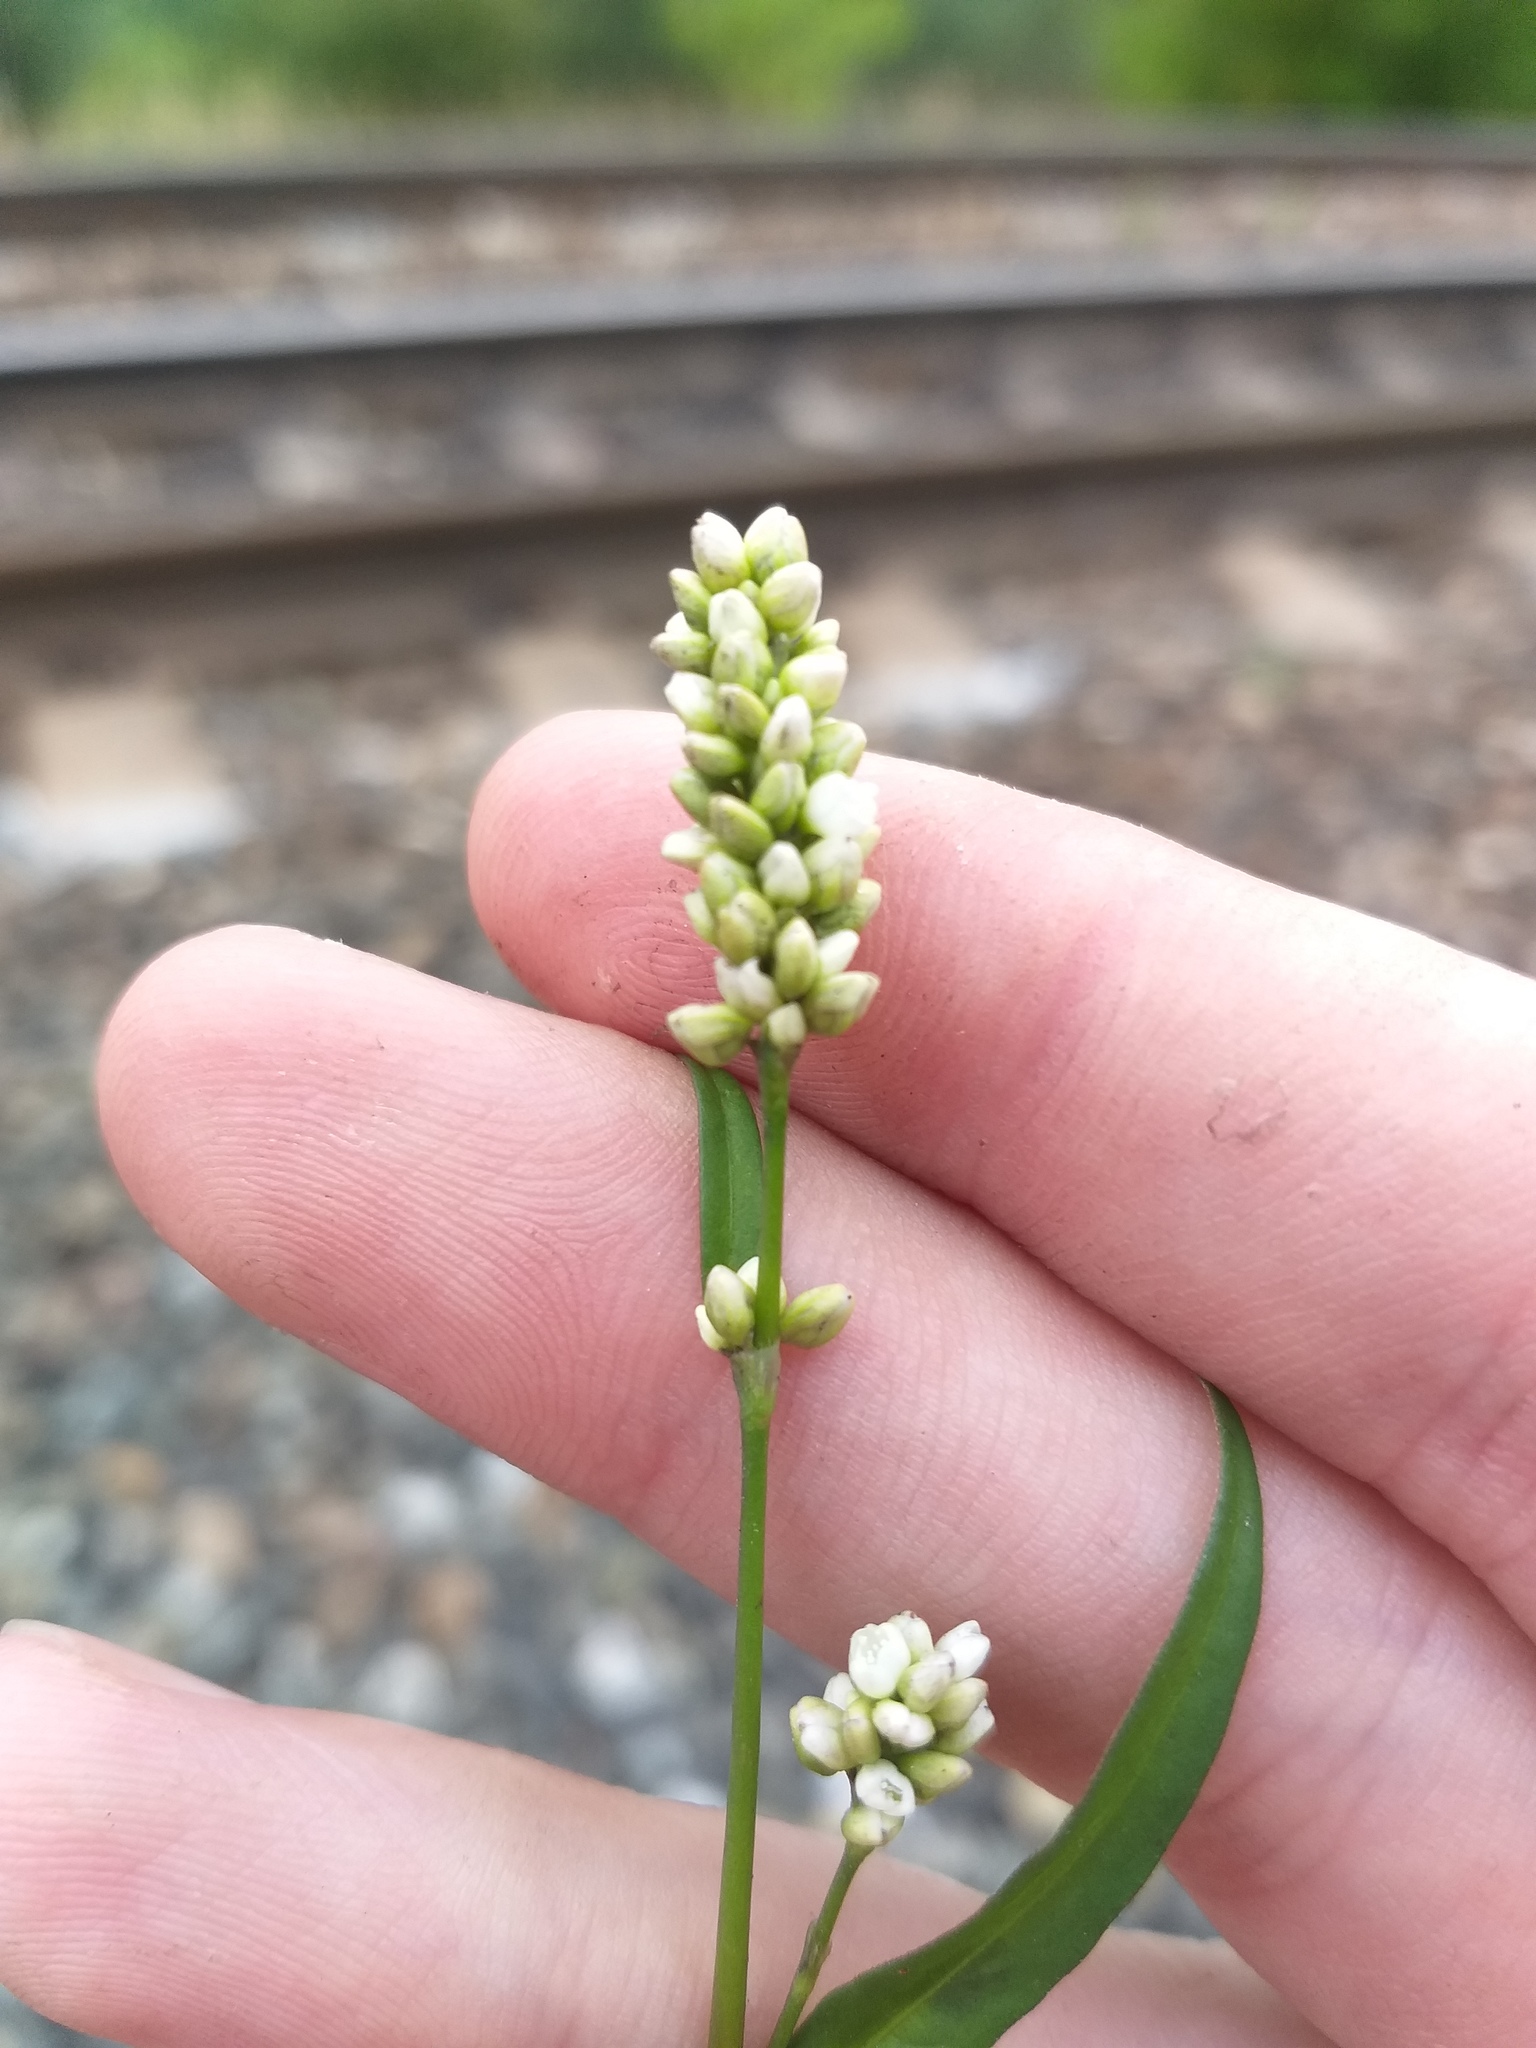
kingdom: Plantae
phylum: Tracheophyta
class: Magnoliopsida
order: Caryophyllales
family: Polygonaceae
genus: Persicaria
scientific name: Persicaria maculosa
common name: Redshank
